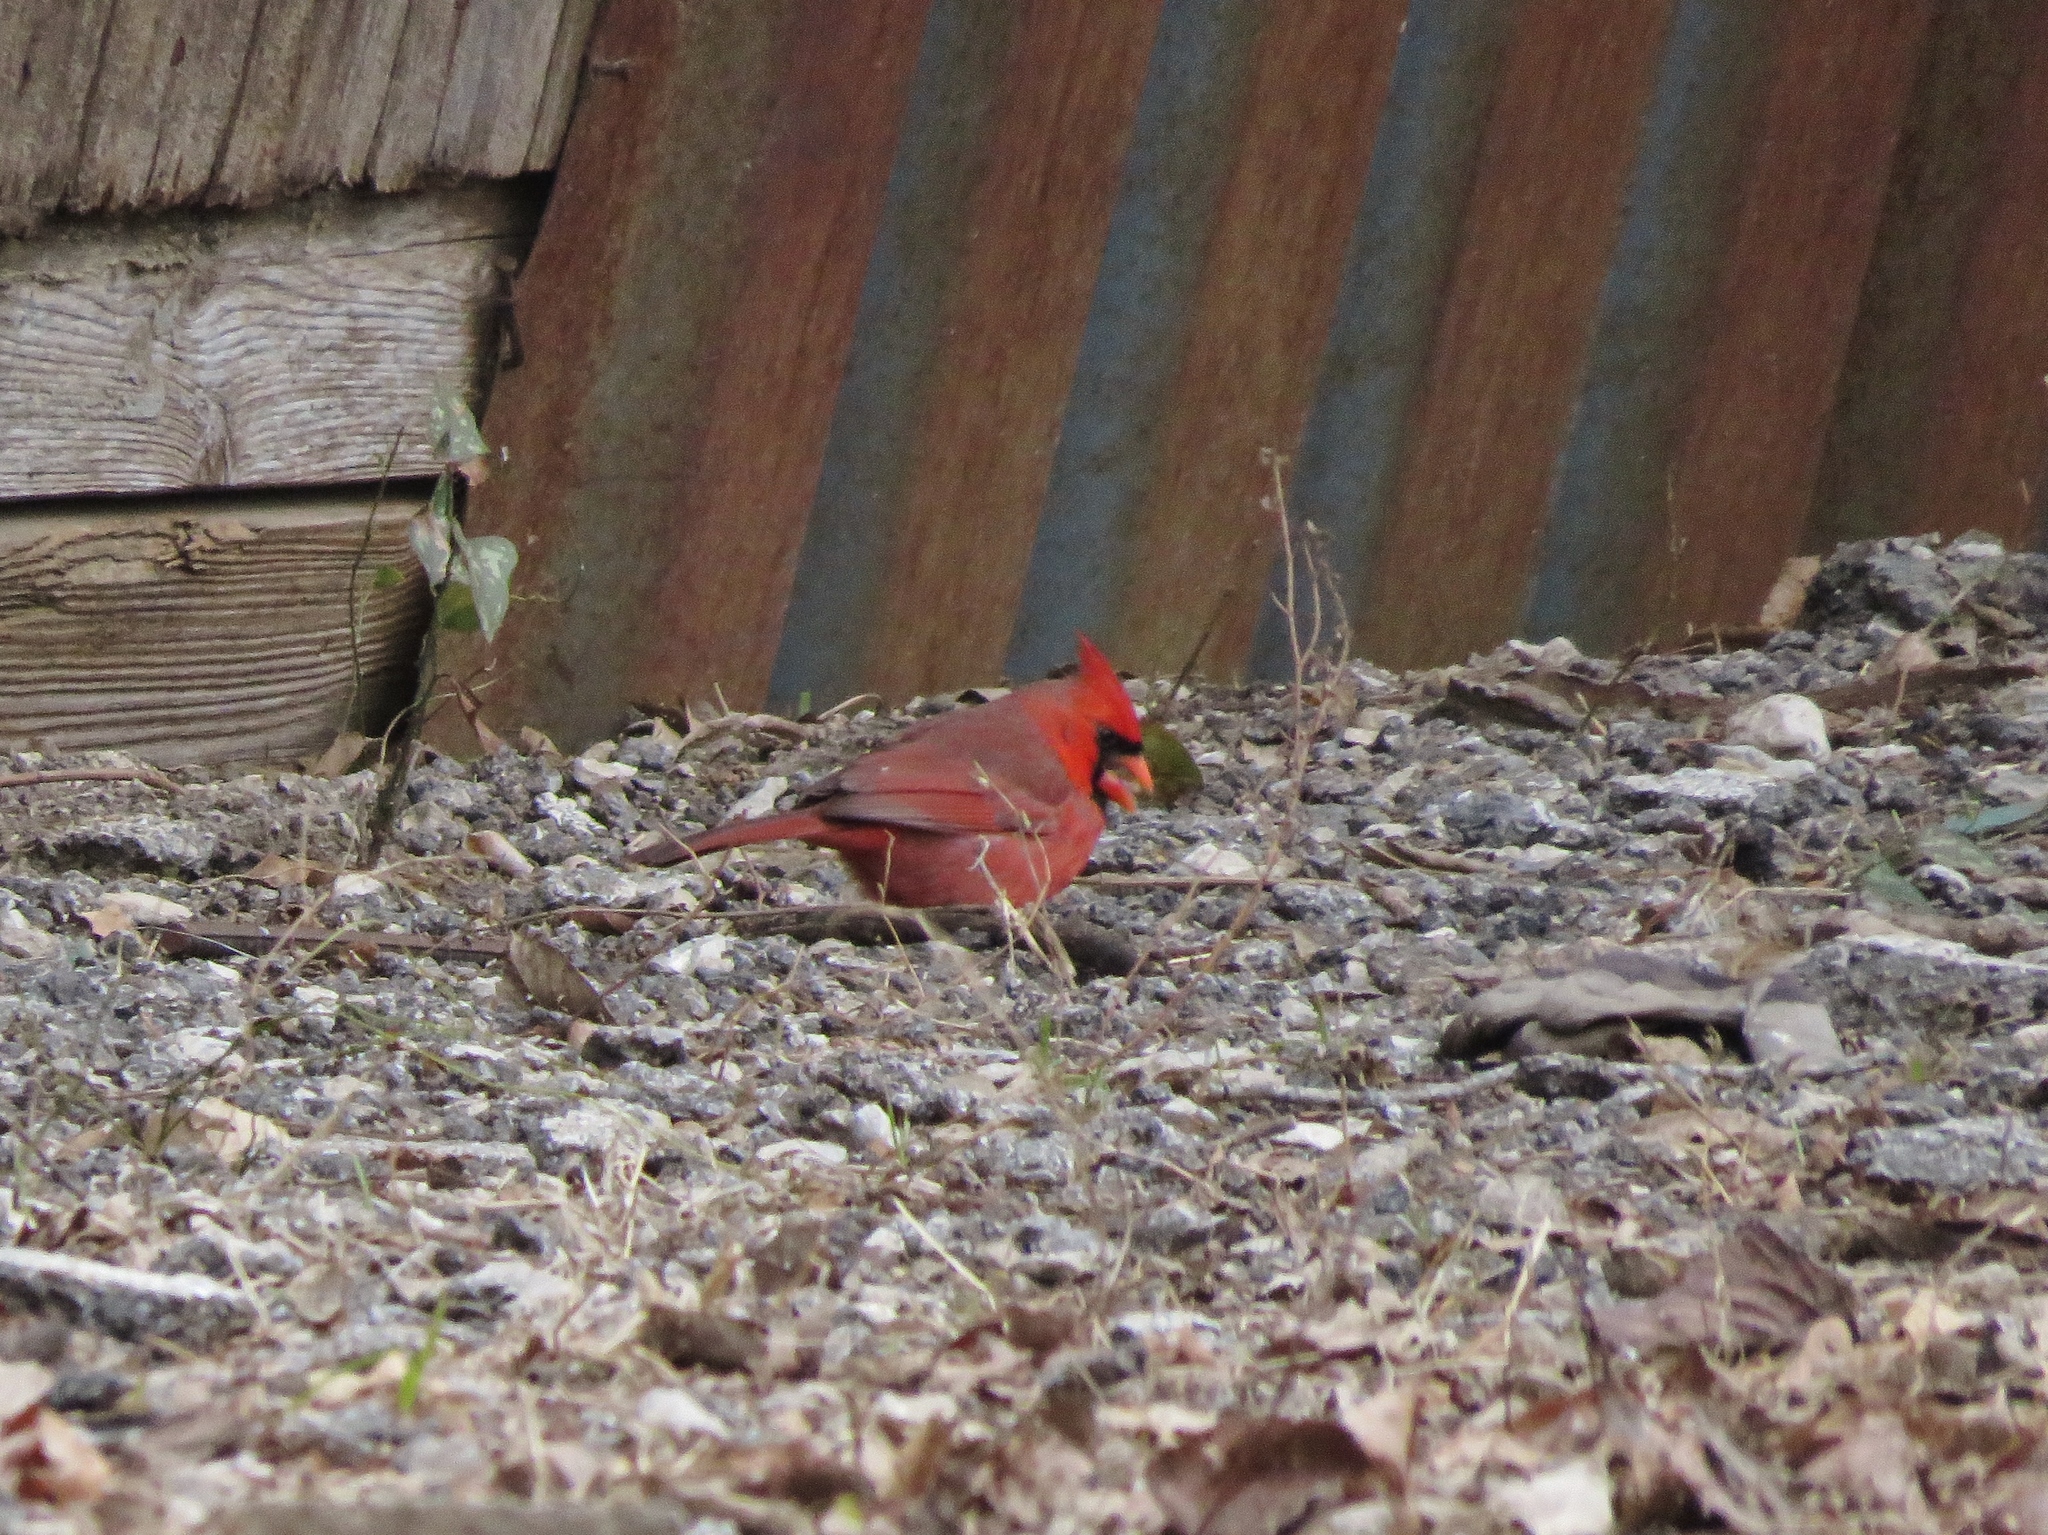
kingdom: Animalia
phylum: Chordata
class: Aves
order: Passeriformes
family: Cardinalidae
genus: Cardinalis
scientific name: Cardinalis cardinalis
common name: Northern cardinal
